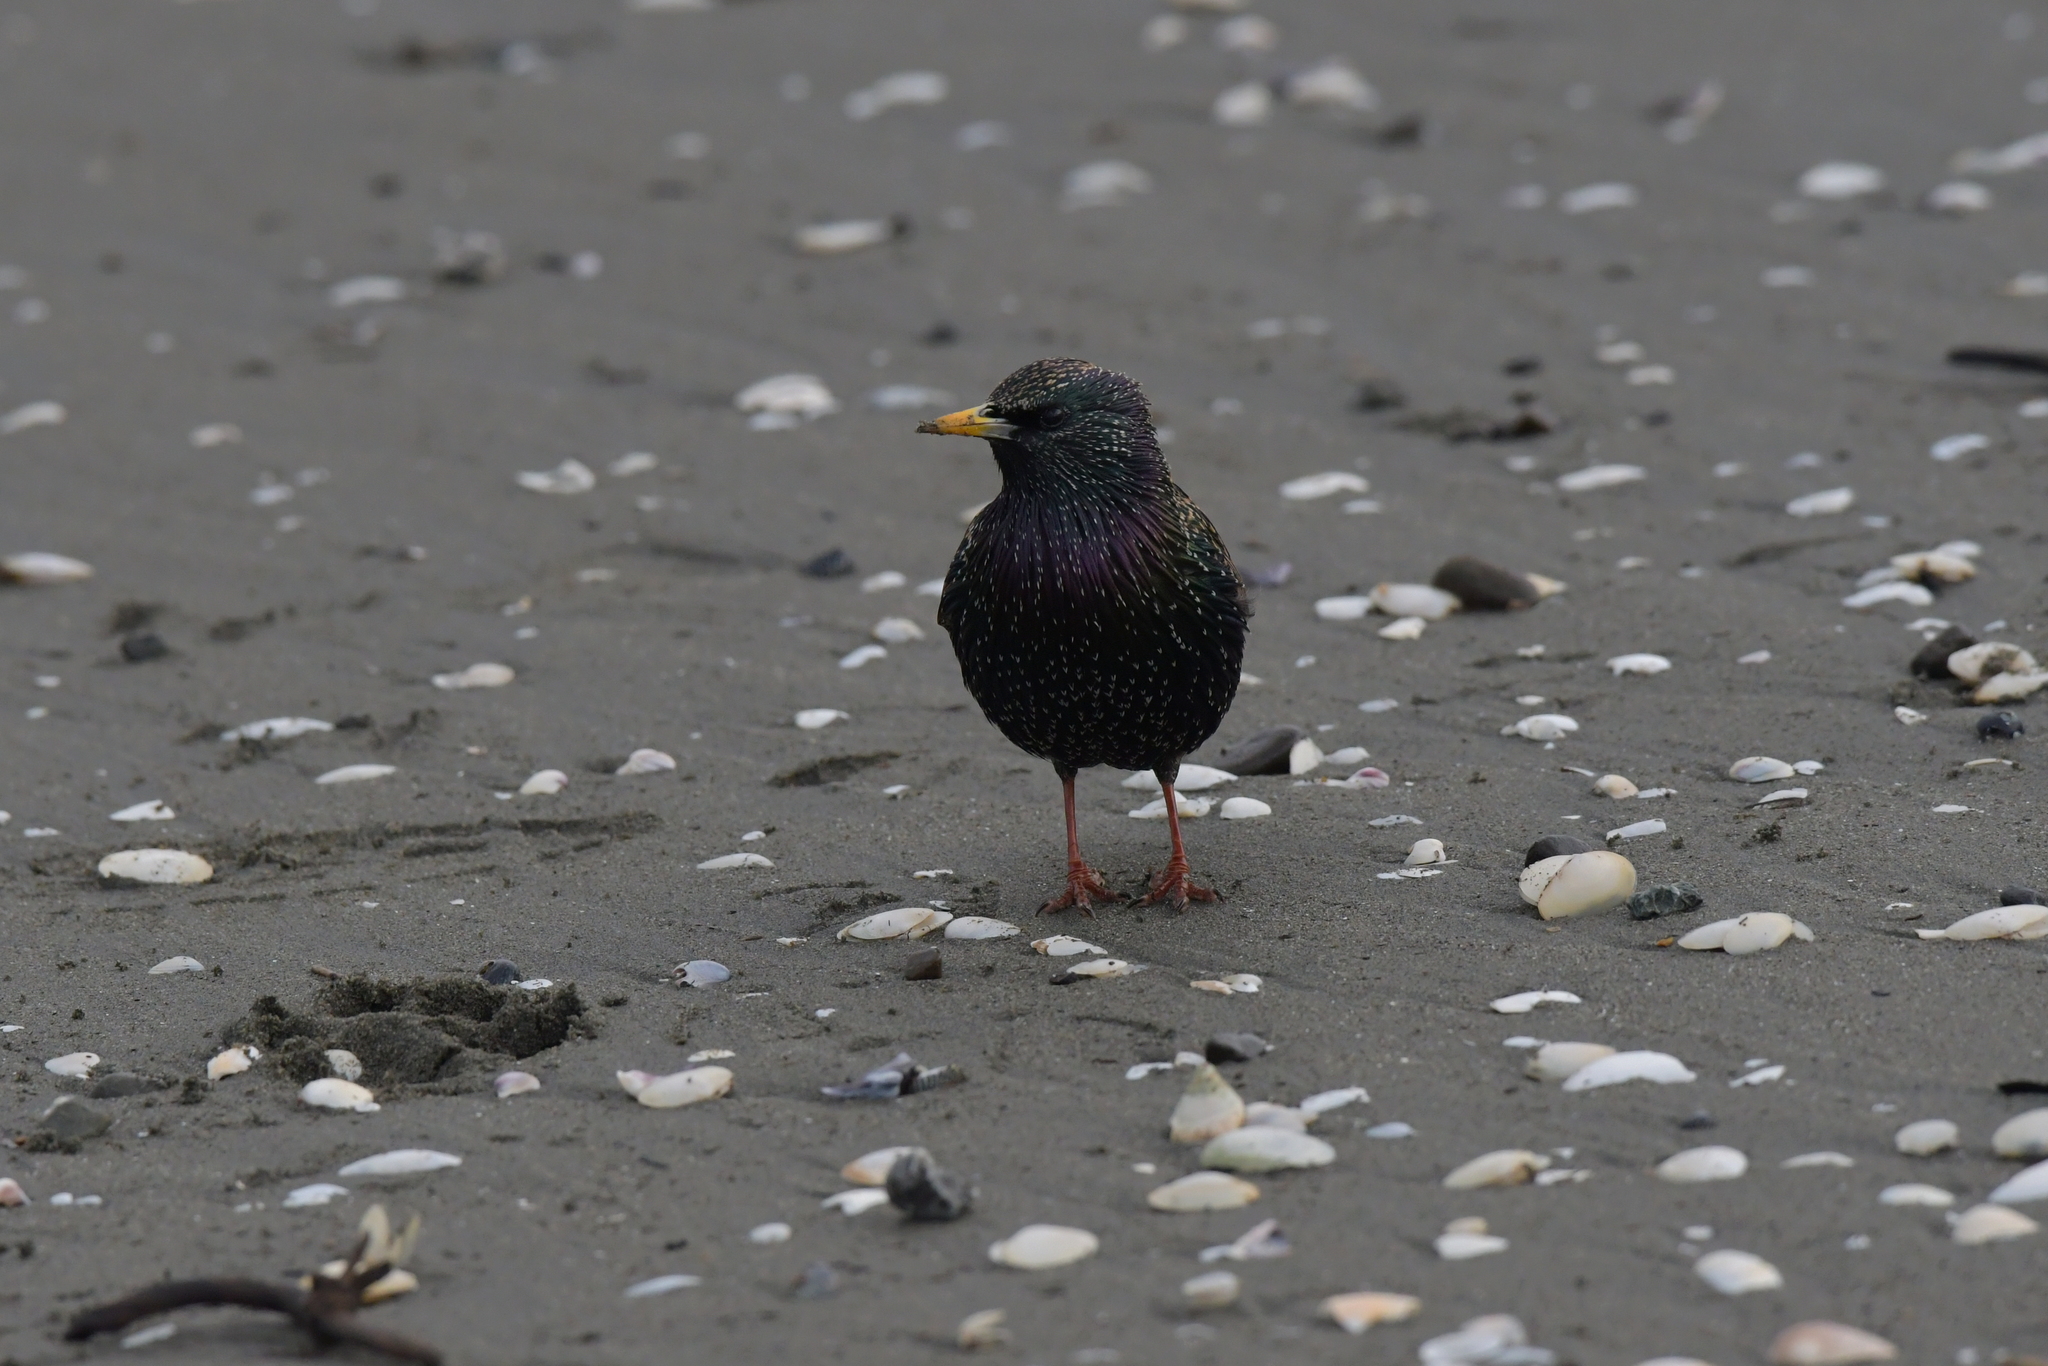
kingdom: Animalia
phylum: Chordata
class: Aves
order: Passeriformes
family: Sturnidae
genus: Sturnus
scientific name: Sturnus vulgaris
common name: Common starling
